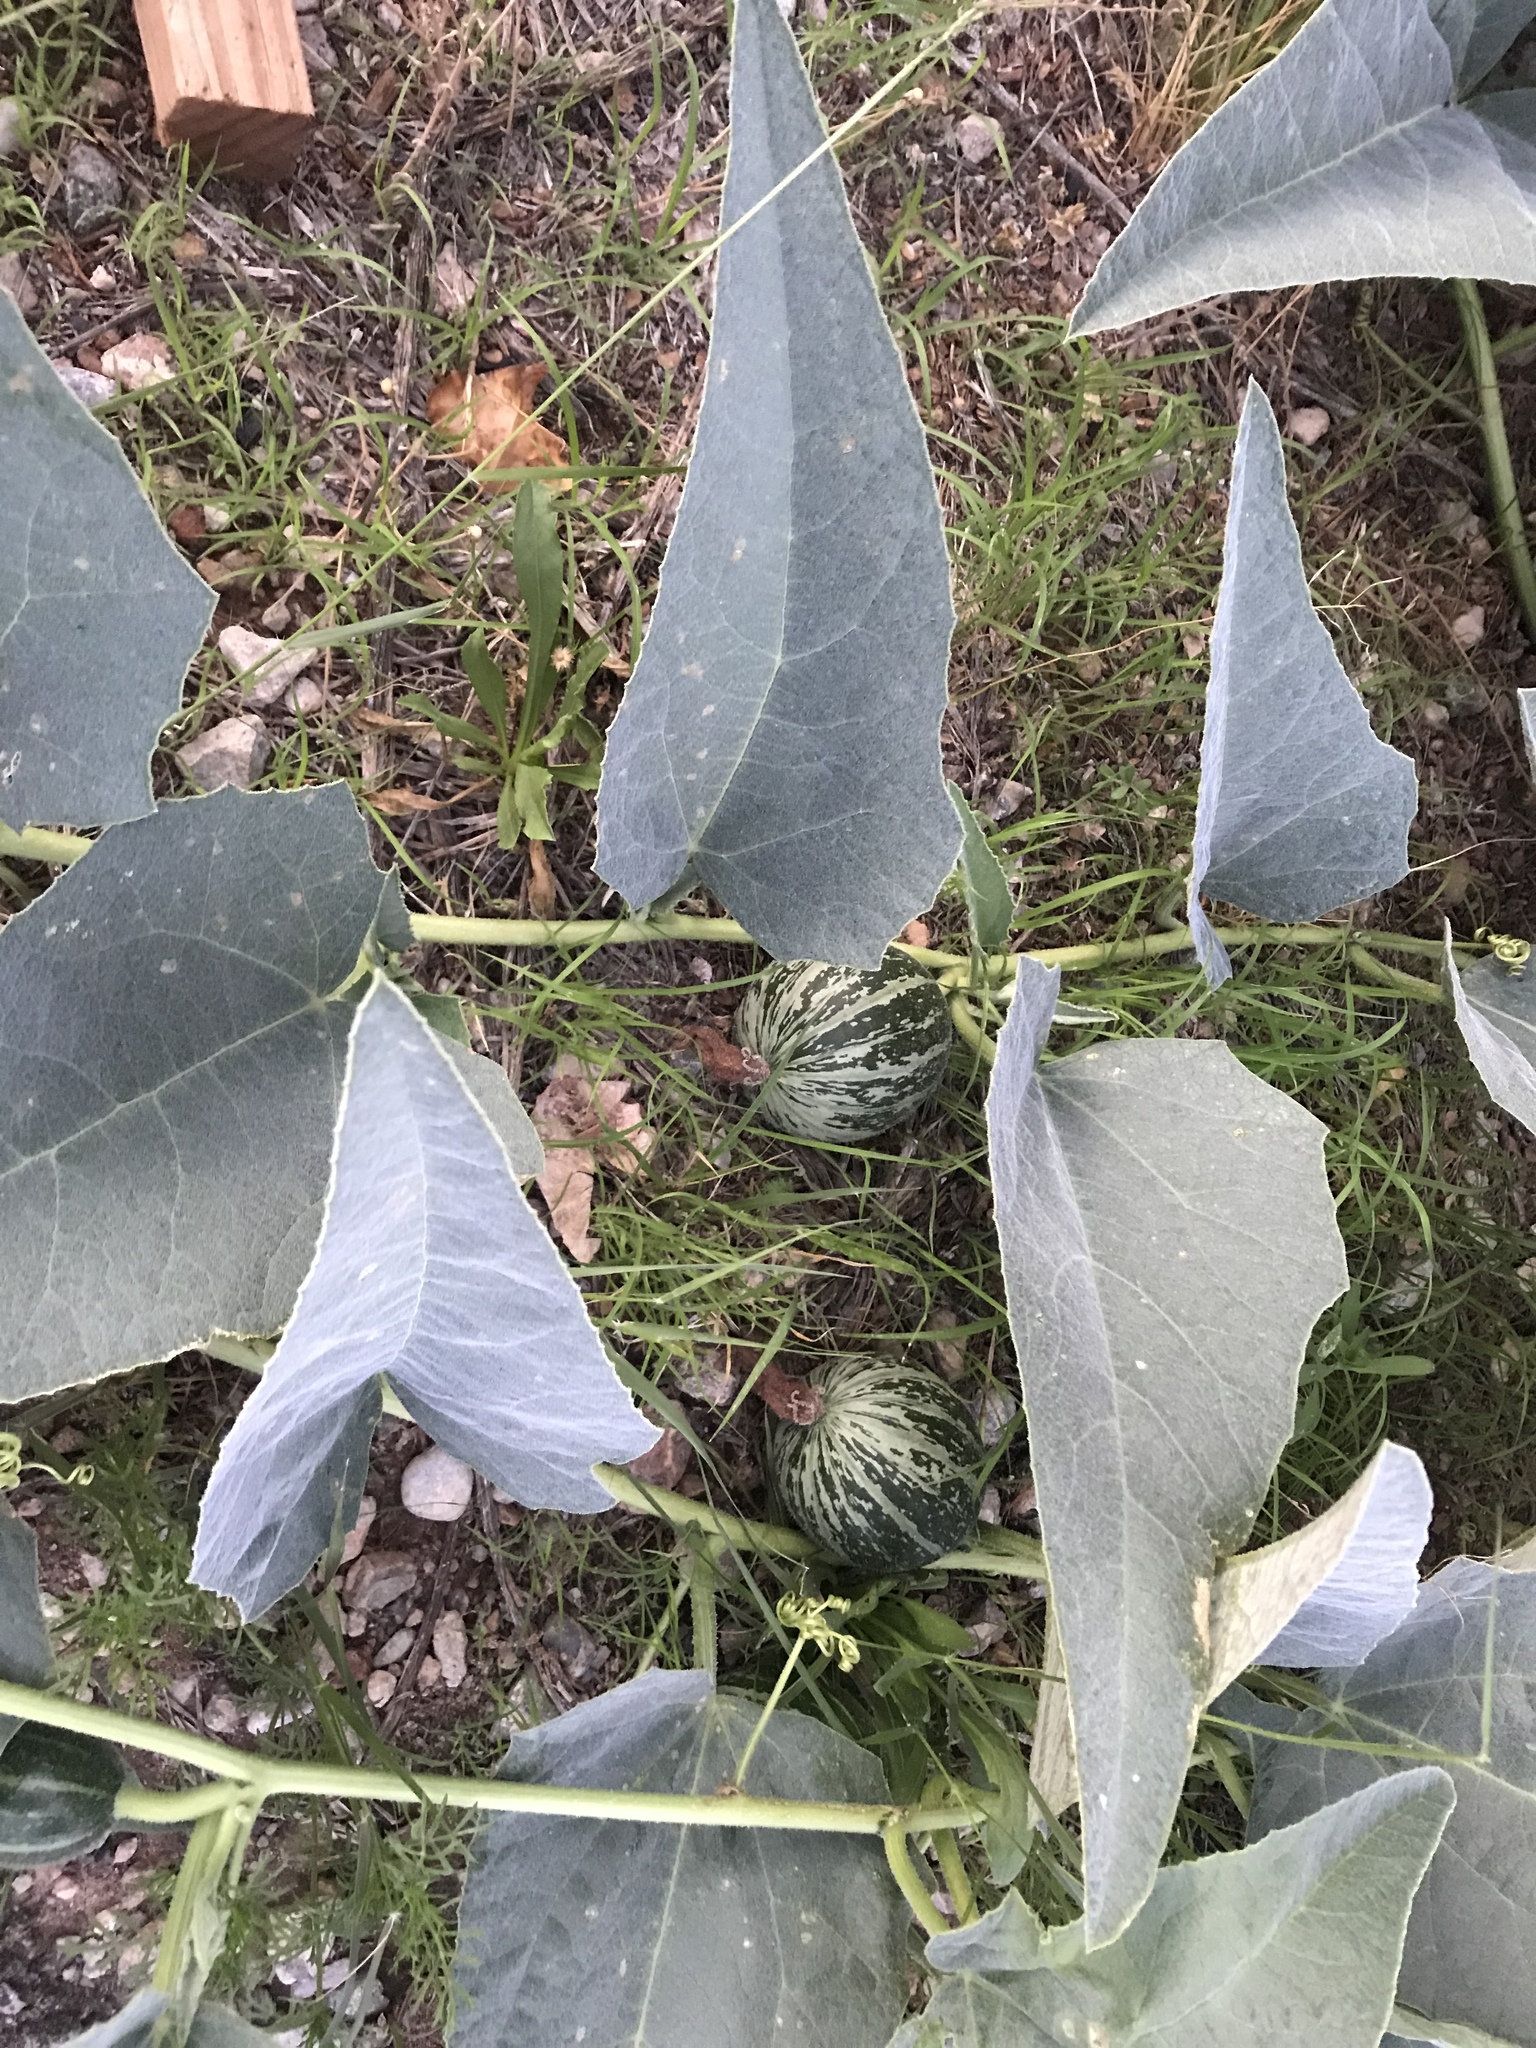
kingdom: Plantae
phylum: Tracheophyta
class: Magnoliopsida
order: Cucurbitales
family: Cucurbitaceae
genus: Cucurbita
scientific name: Cucurbita foetidissima
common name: Buffalo gourd
